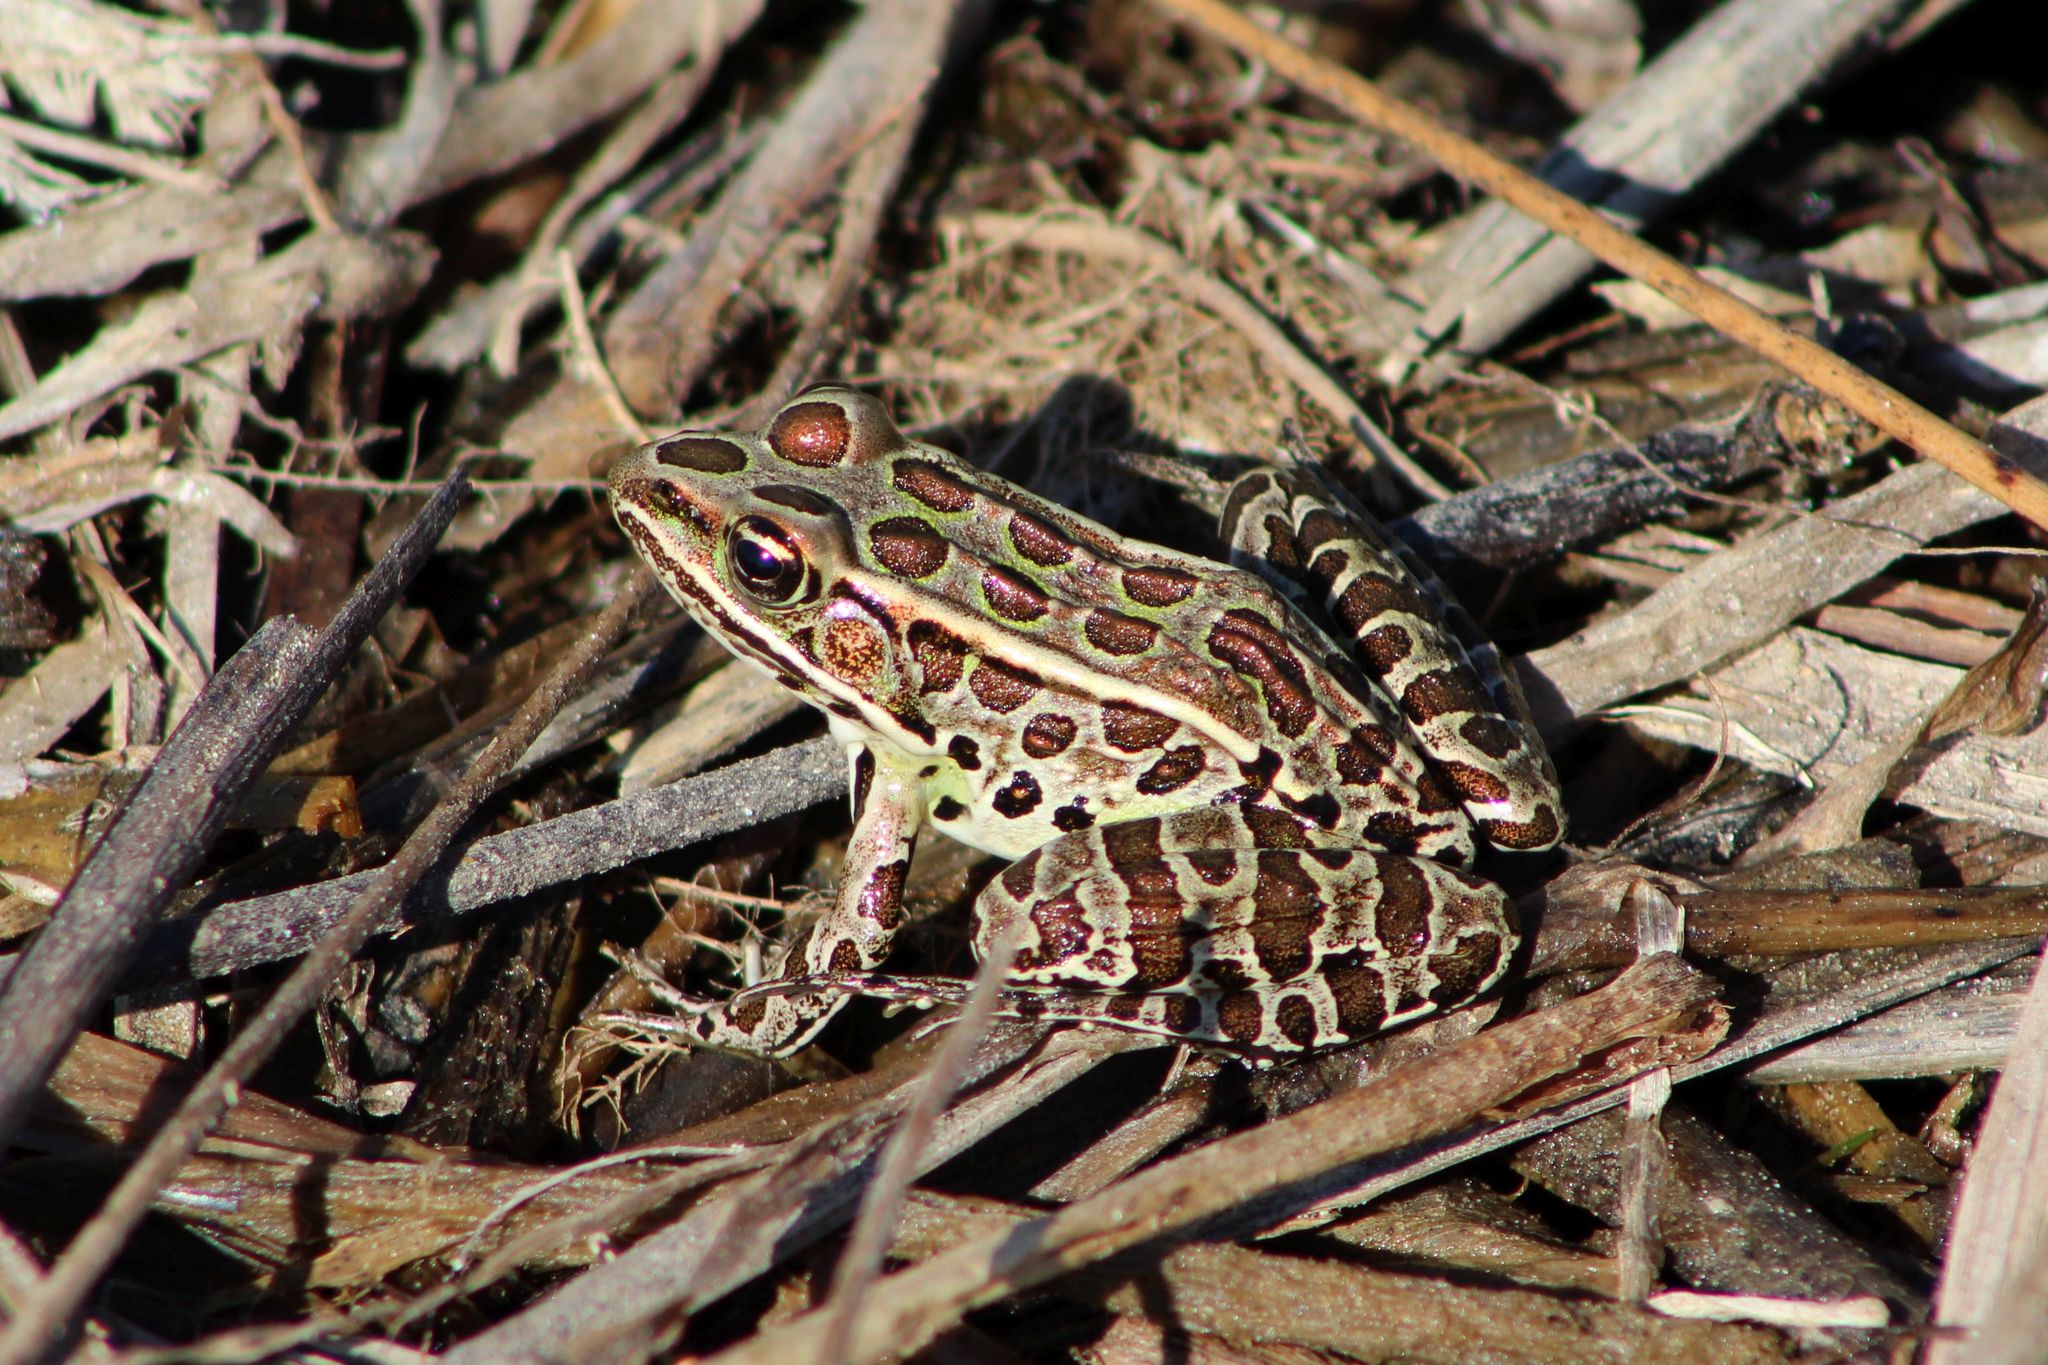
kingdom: Animalia
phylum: Chordata
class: Amphibia
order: Anura
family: Ranidae
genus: Lithobates
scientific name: Lithobates pipiens
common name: Northern leopard frog
